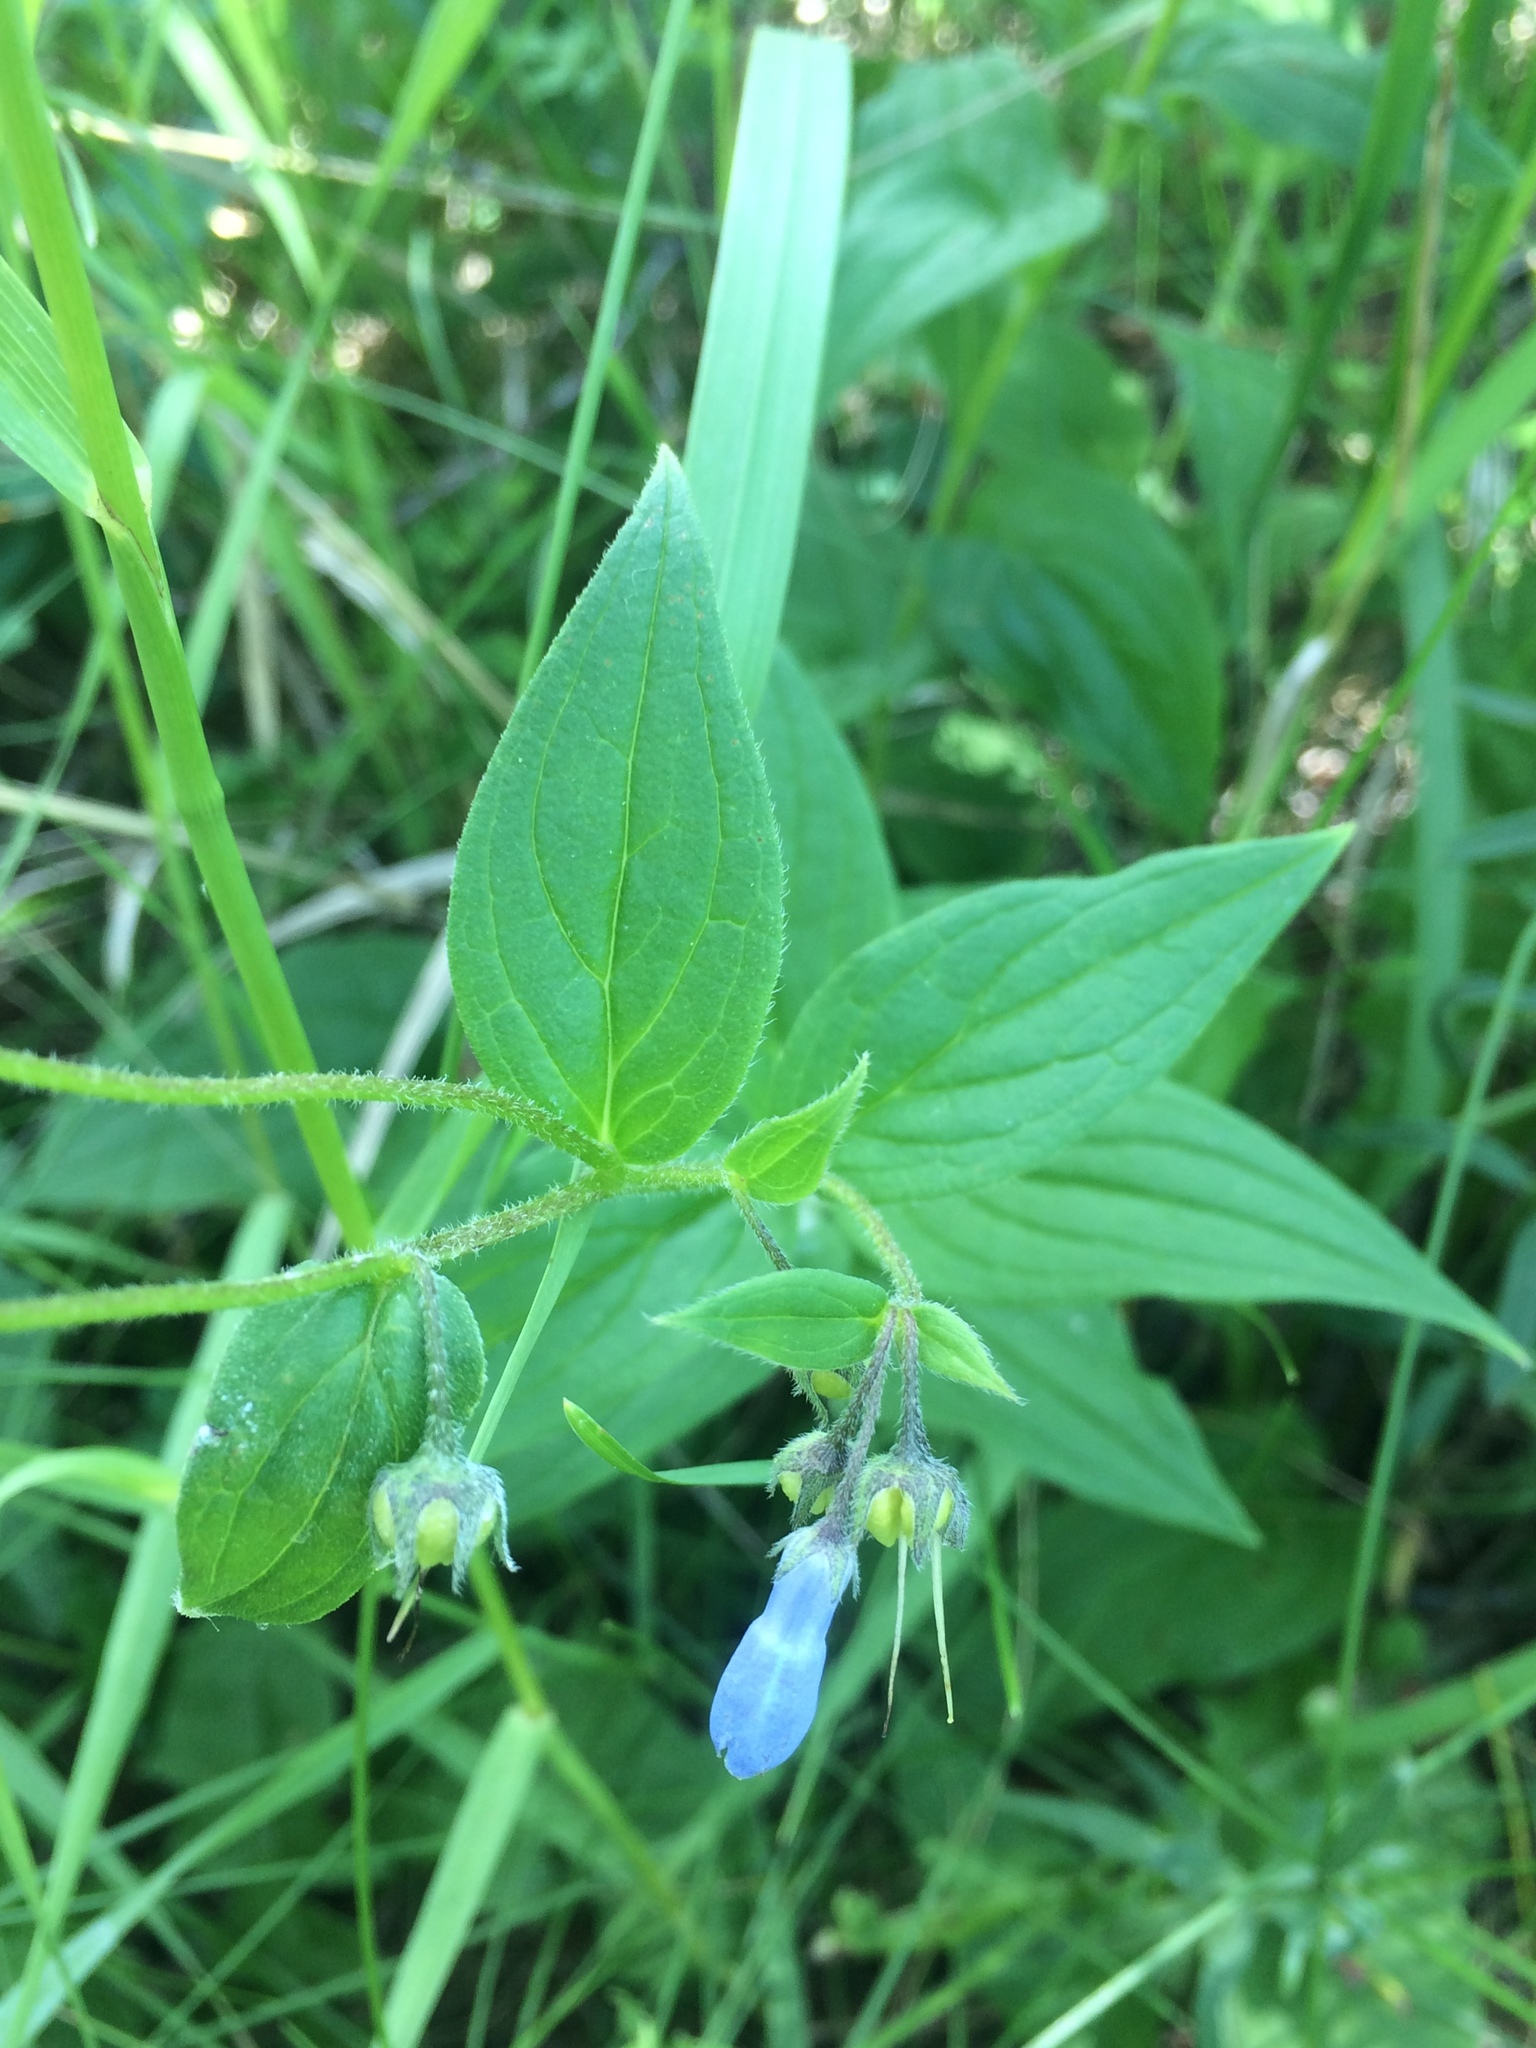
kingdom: Plantae
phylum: Tracheophyta
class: Magnoliopsida
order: Boraginales
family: Boraginaceae
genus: Mertensia
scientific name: Mertensia paniculata
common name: Panicled bluebells
